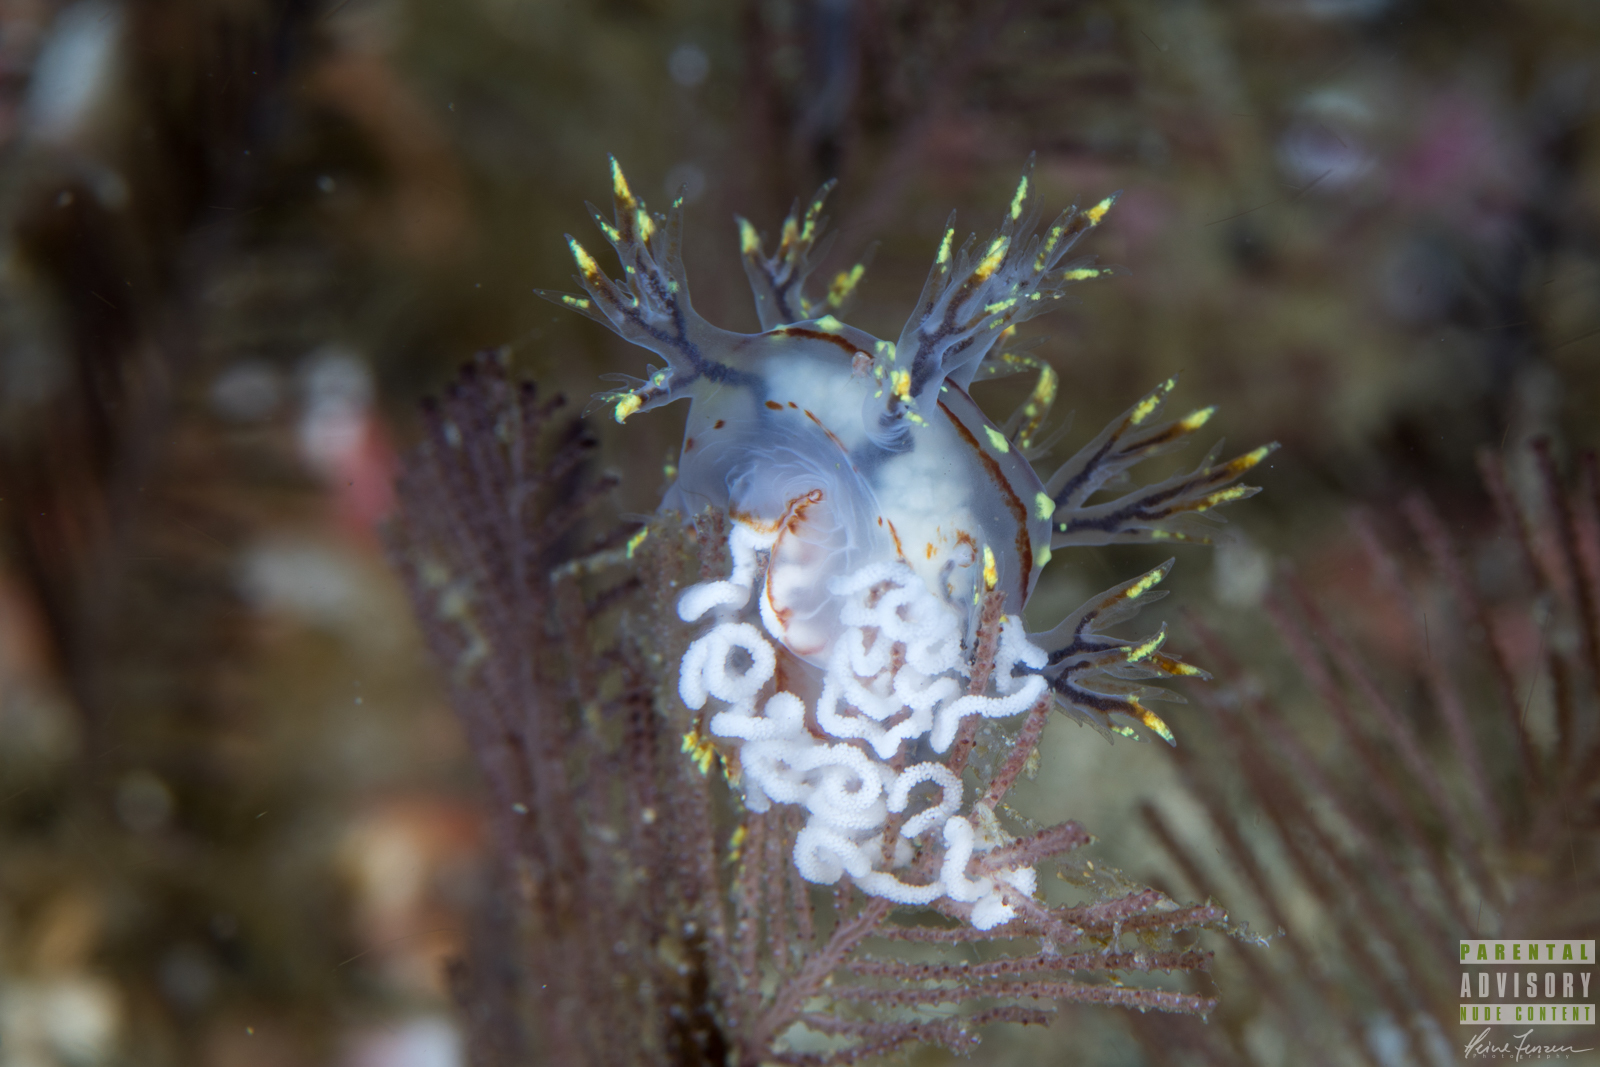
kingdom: Animalia
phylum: Mollusca
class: Gastropoda
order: Nudibranchia
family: Dendronotidae
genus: Dendronotus
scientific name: Dendronotus yrjargul
